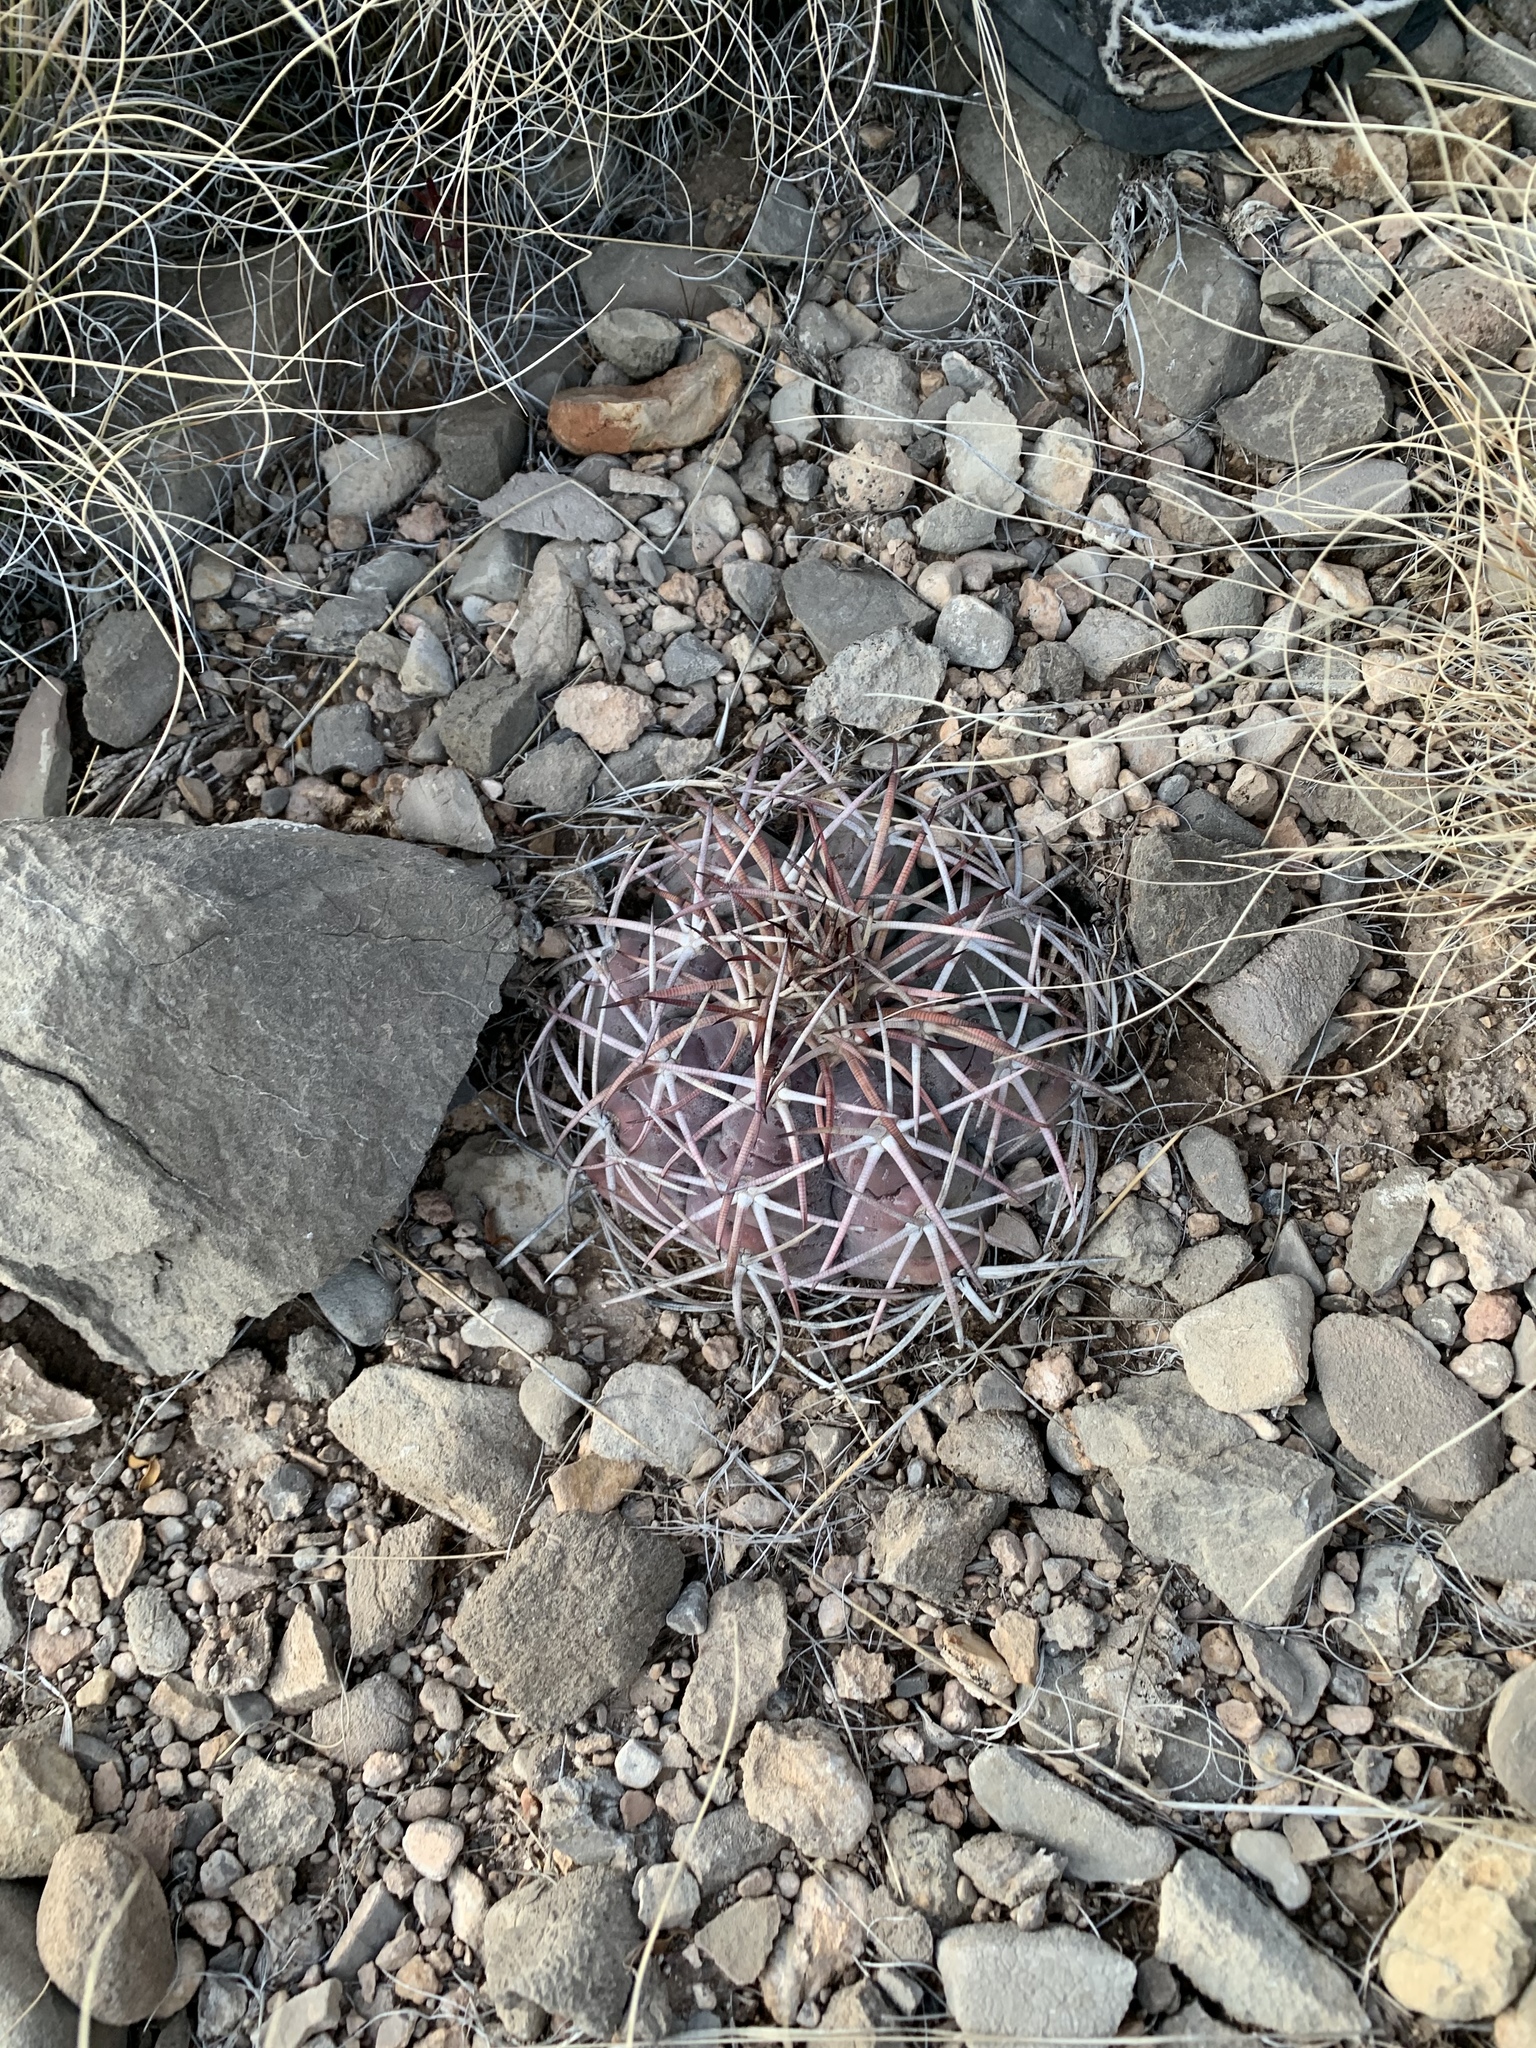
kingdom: Plantae
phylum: Tracheophyta
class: Magnoliopsida
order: Caryophyllales
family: Cactaceae
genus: Echinocactus
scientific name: Echinocactus horizonthalonius
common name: Devilshead
